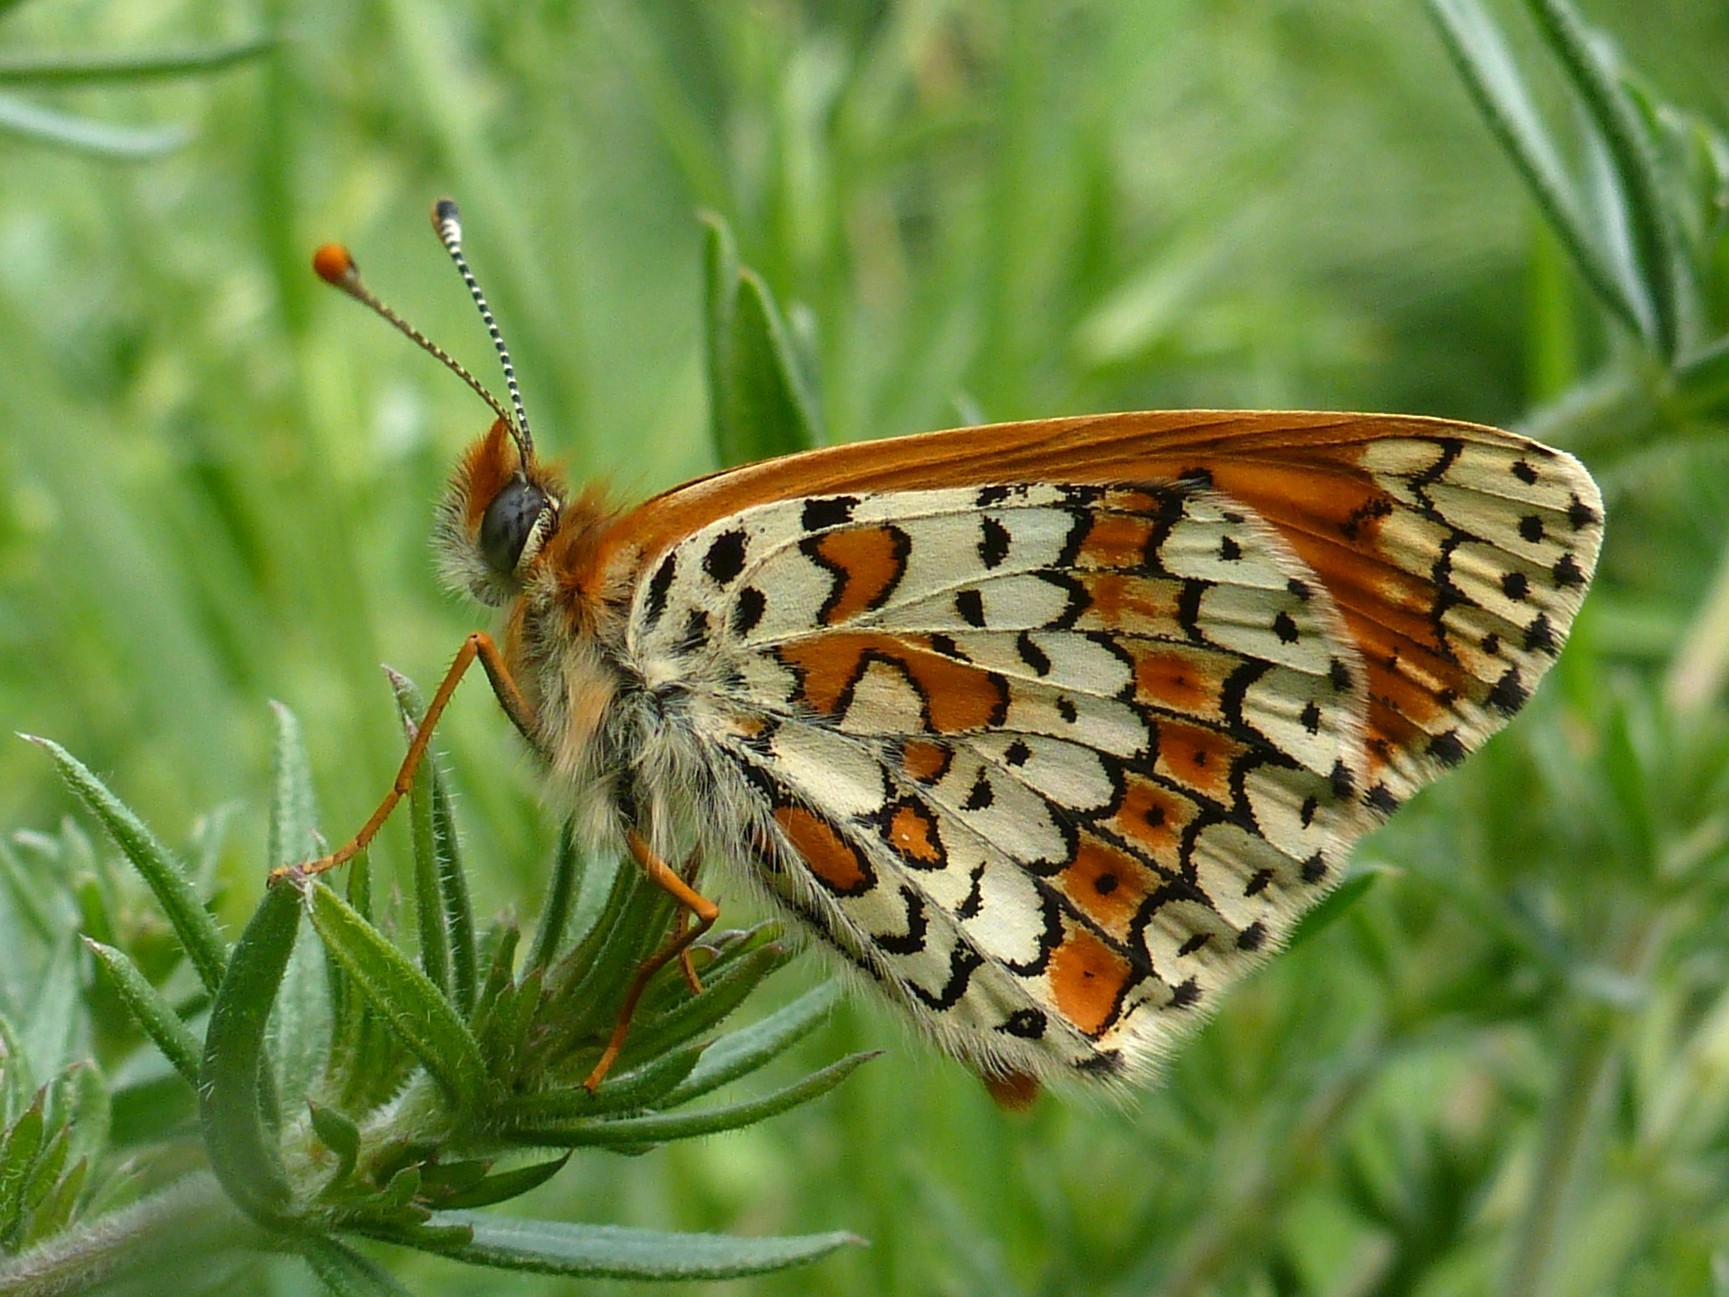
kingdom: Animalia
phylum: Arthropoda
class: Insecta
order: Lepidoptera
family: Nymphalidae
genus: Melitaea
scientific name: Melitaea cinxia
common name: Glanville fritillary
